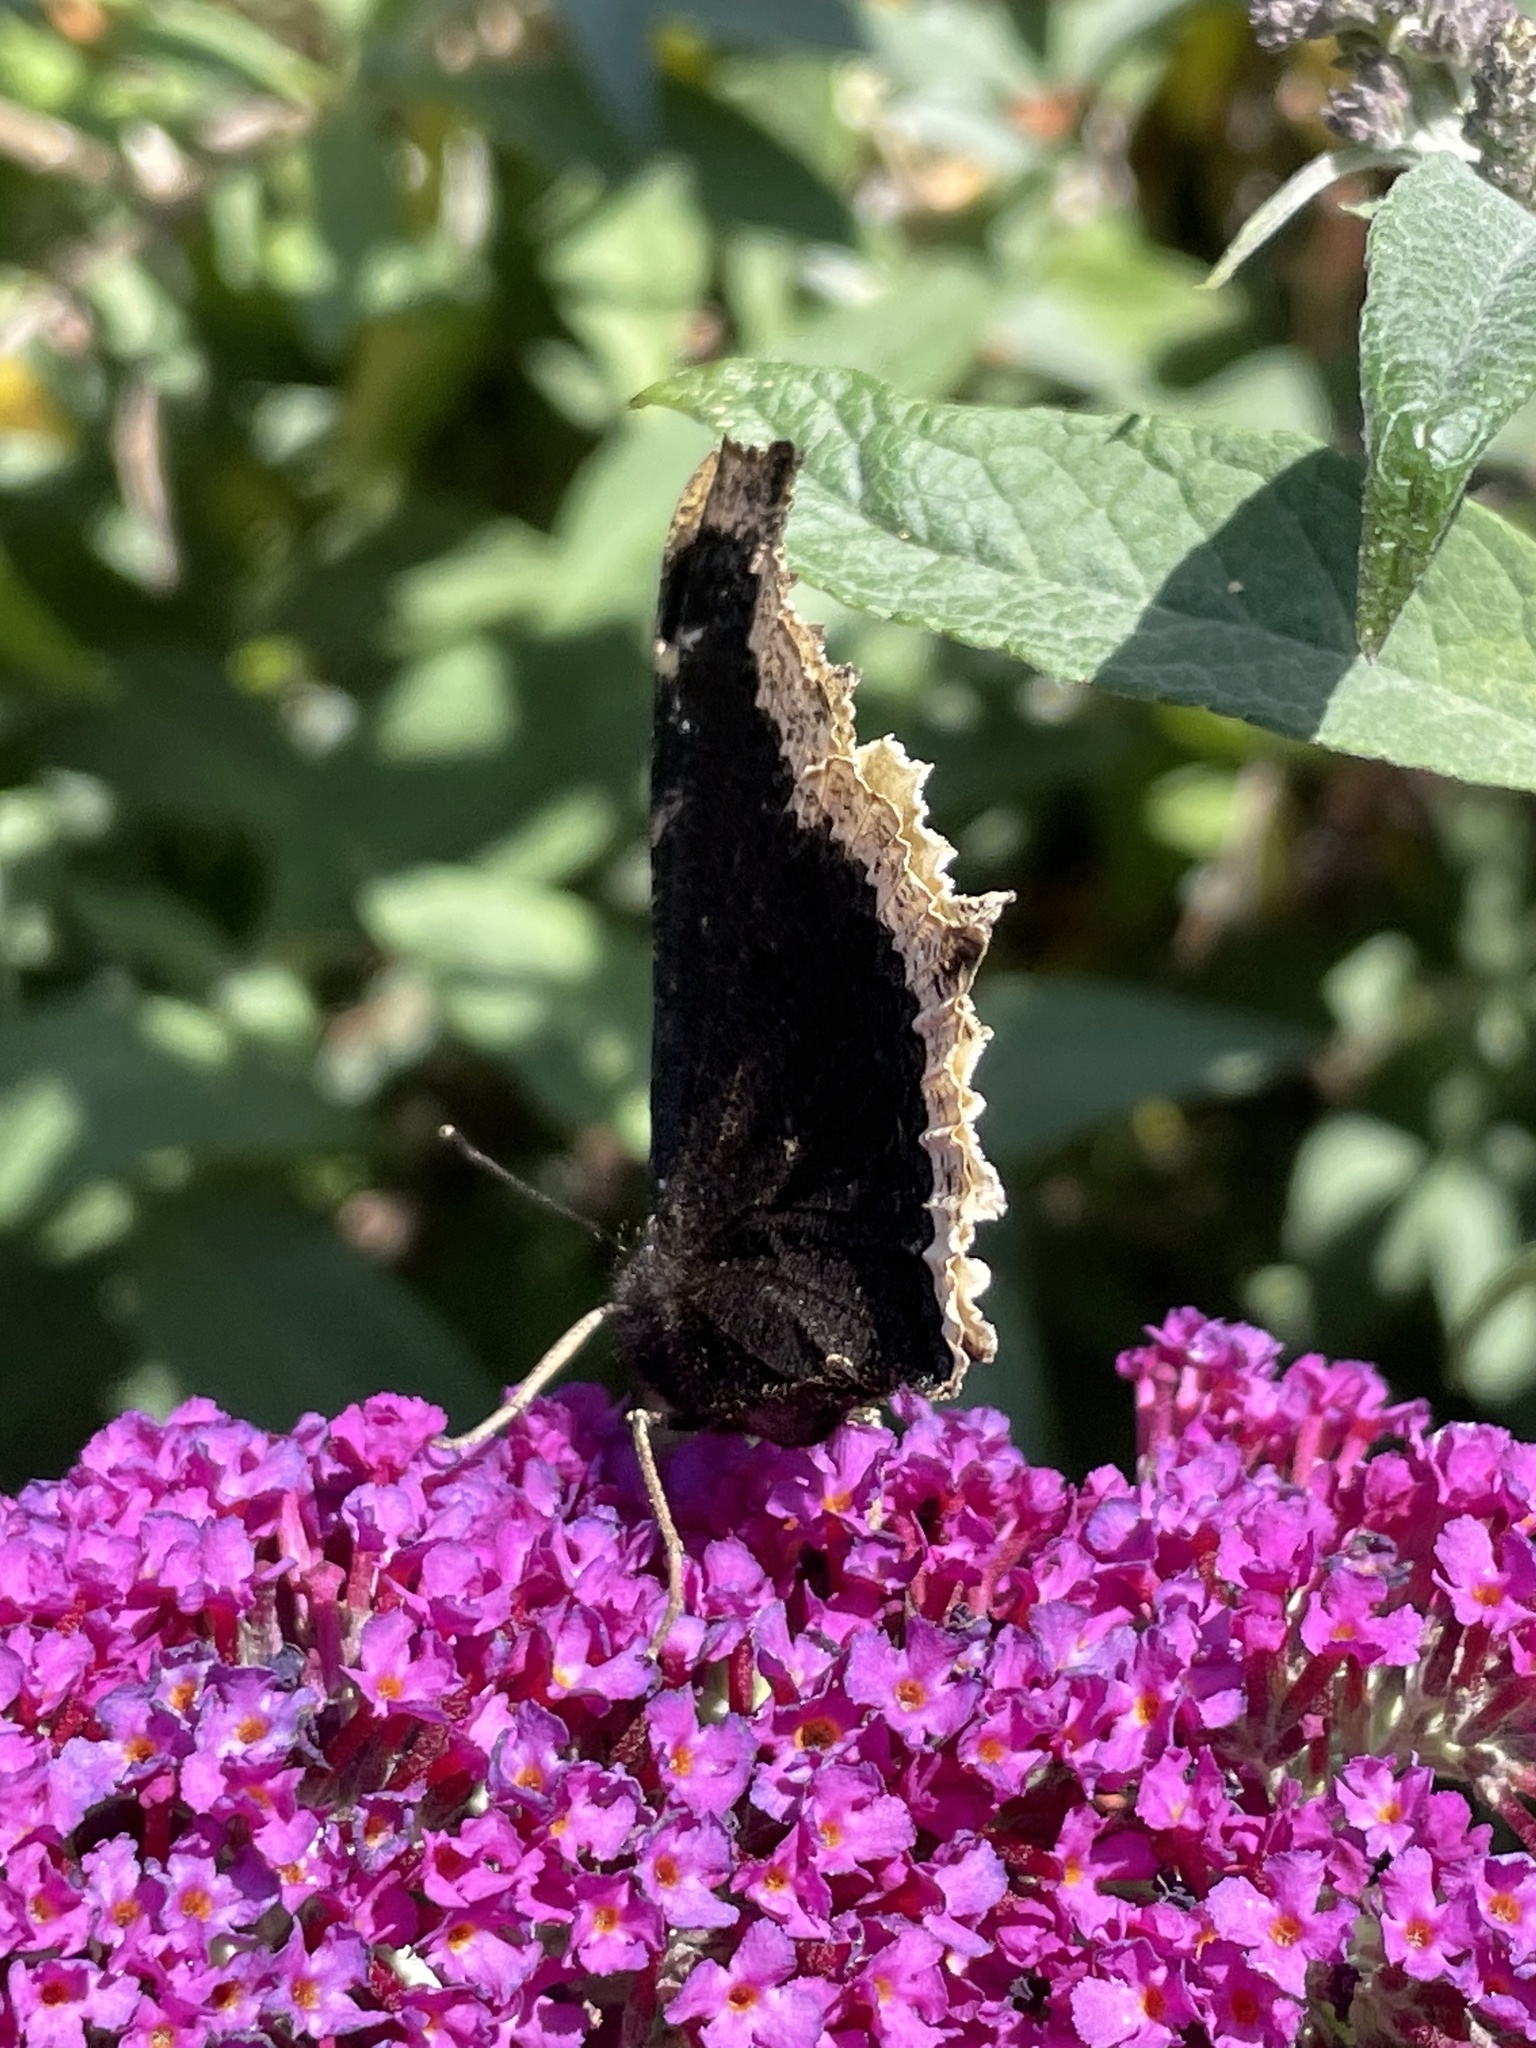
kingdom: Animalia
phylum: Arthropoda
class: Insecta
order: Lepidoptera
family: Nymphalidae
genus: Nymphalis
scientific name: Nymphalis antiopa
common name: Camberwell beauty
